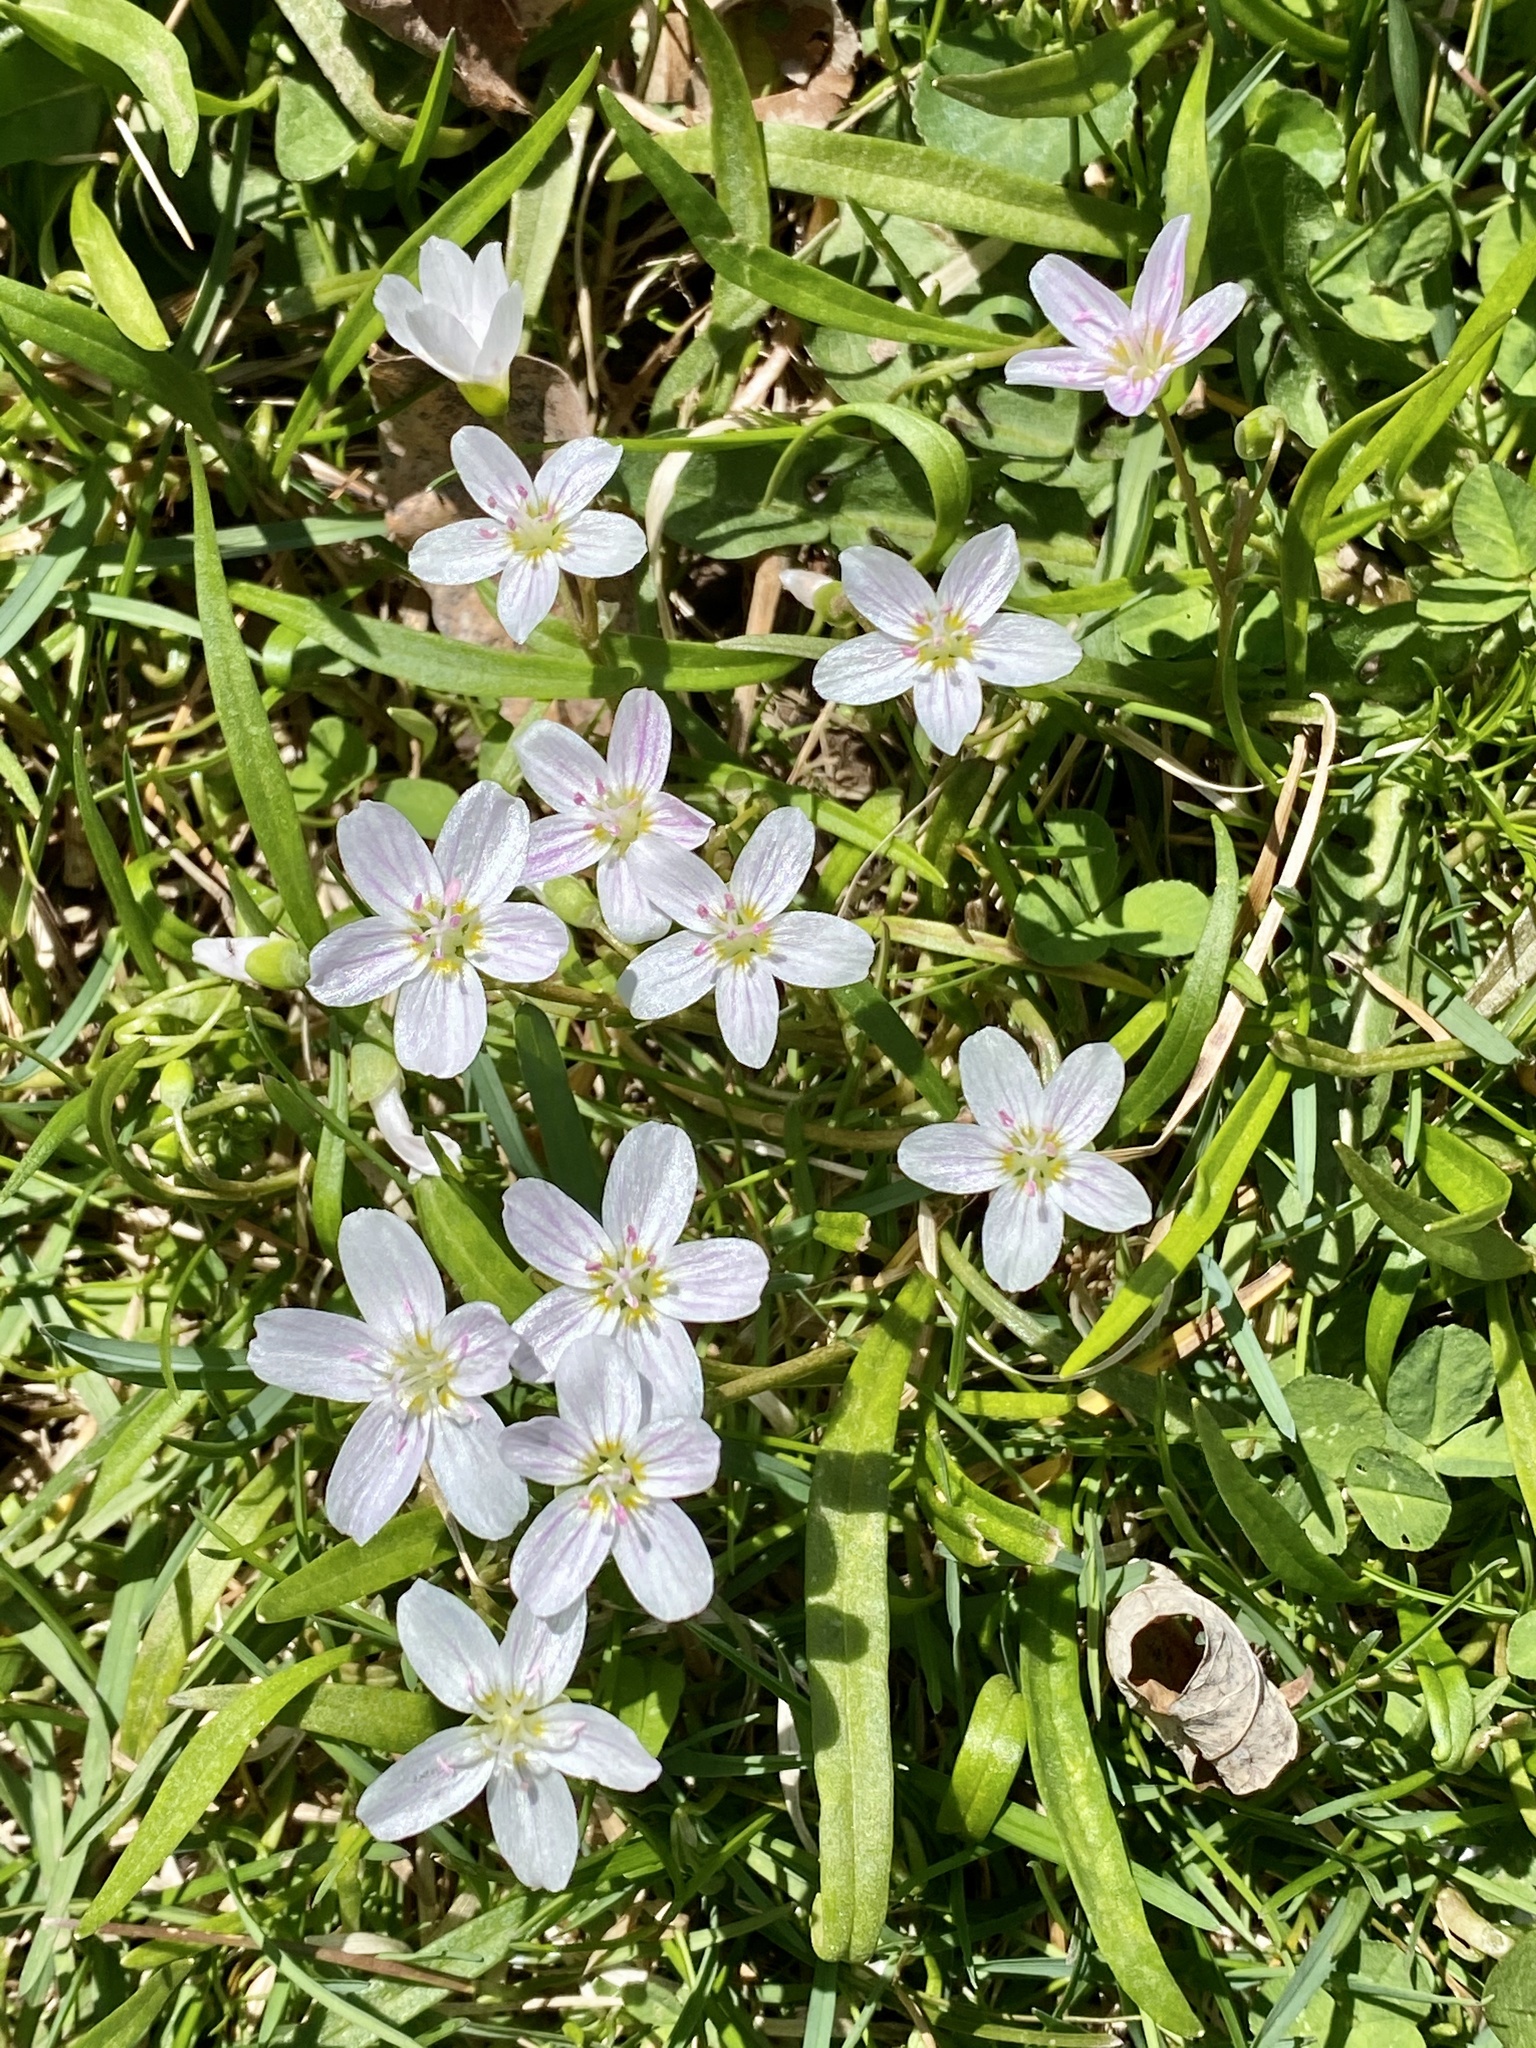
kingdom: Plantae
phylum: Tracheophyta
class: Magnoliopsida
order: Caryophyllales
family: Montiaceae
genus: Claytonia
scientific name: Claytonia virginica
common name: Virginia springbeauty
